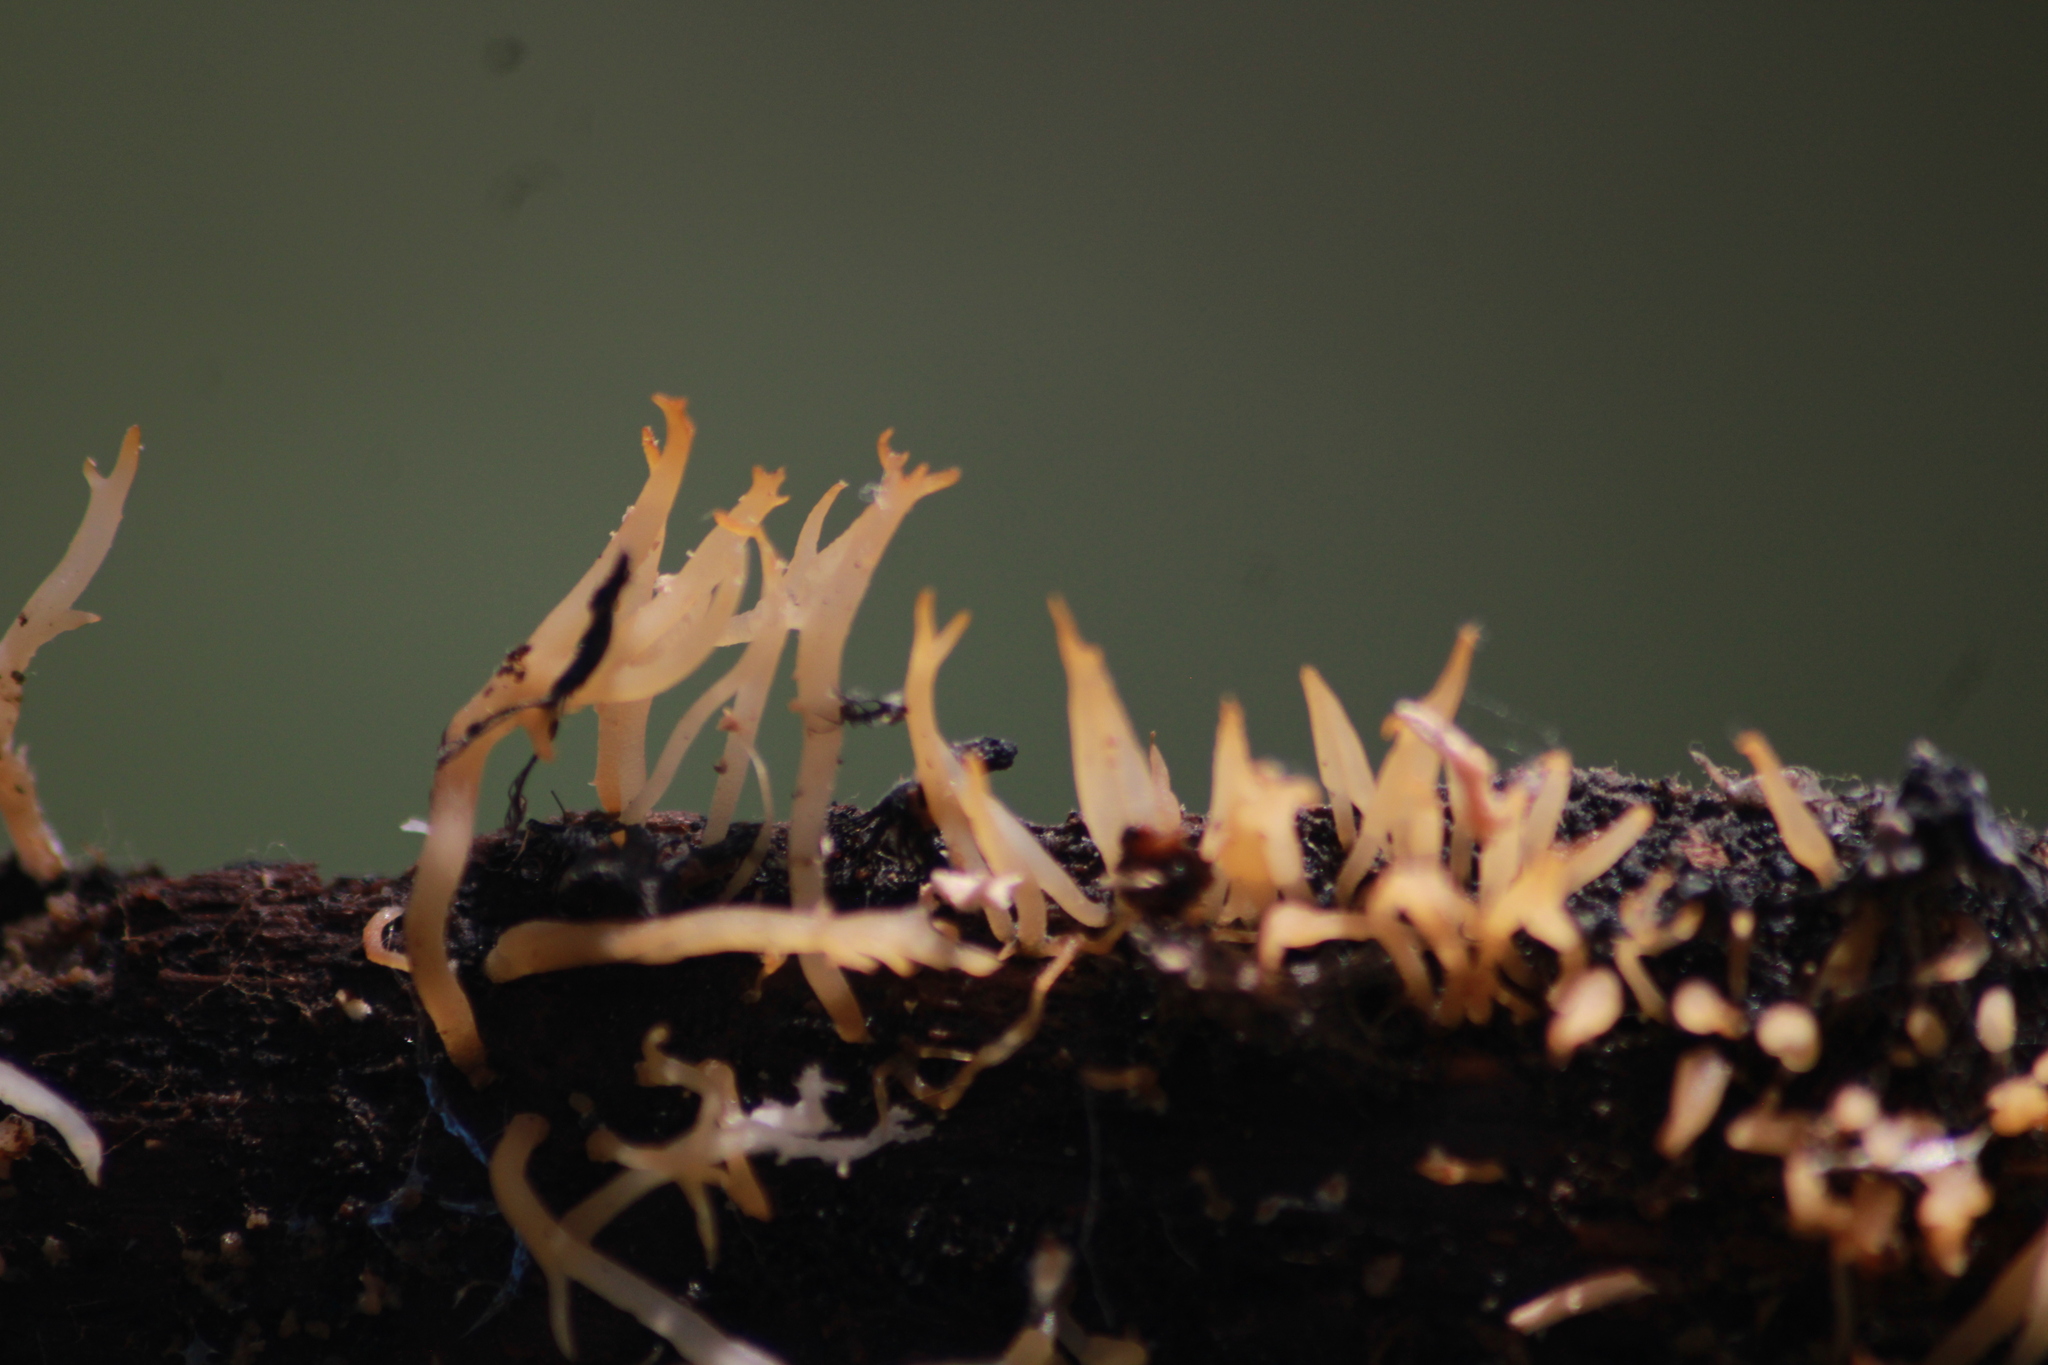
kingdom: Fungi
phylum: Basidiomycota
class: Dacrymycetes
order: Dacrymycetales
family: Dacrymycetaceae
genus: Calocera
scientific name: Calocera cornea
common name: Small stagshorn
